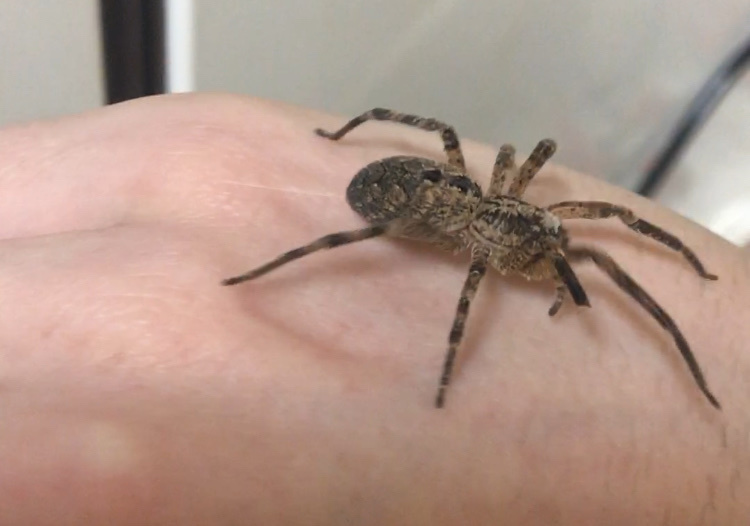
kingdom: Animalia
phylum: Arthropoda
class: Arachnida
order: Araneae
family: Zoropsidae
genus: Zoropsis
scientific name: Zoropsis spinimana
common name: Zoropsid spider
